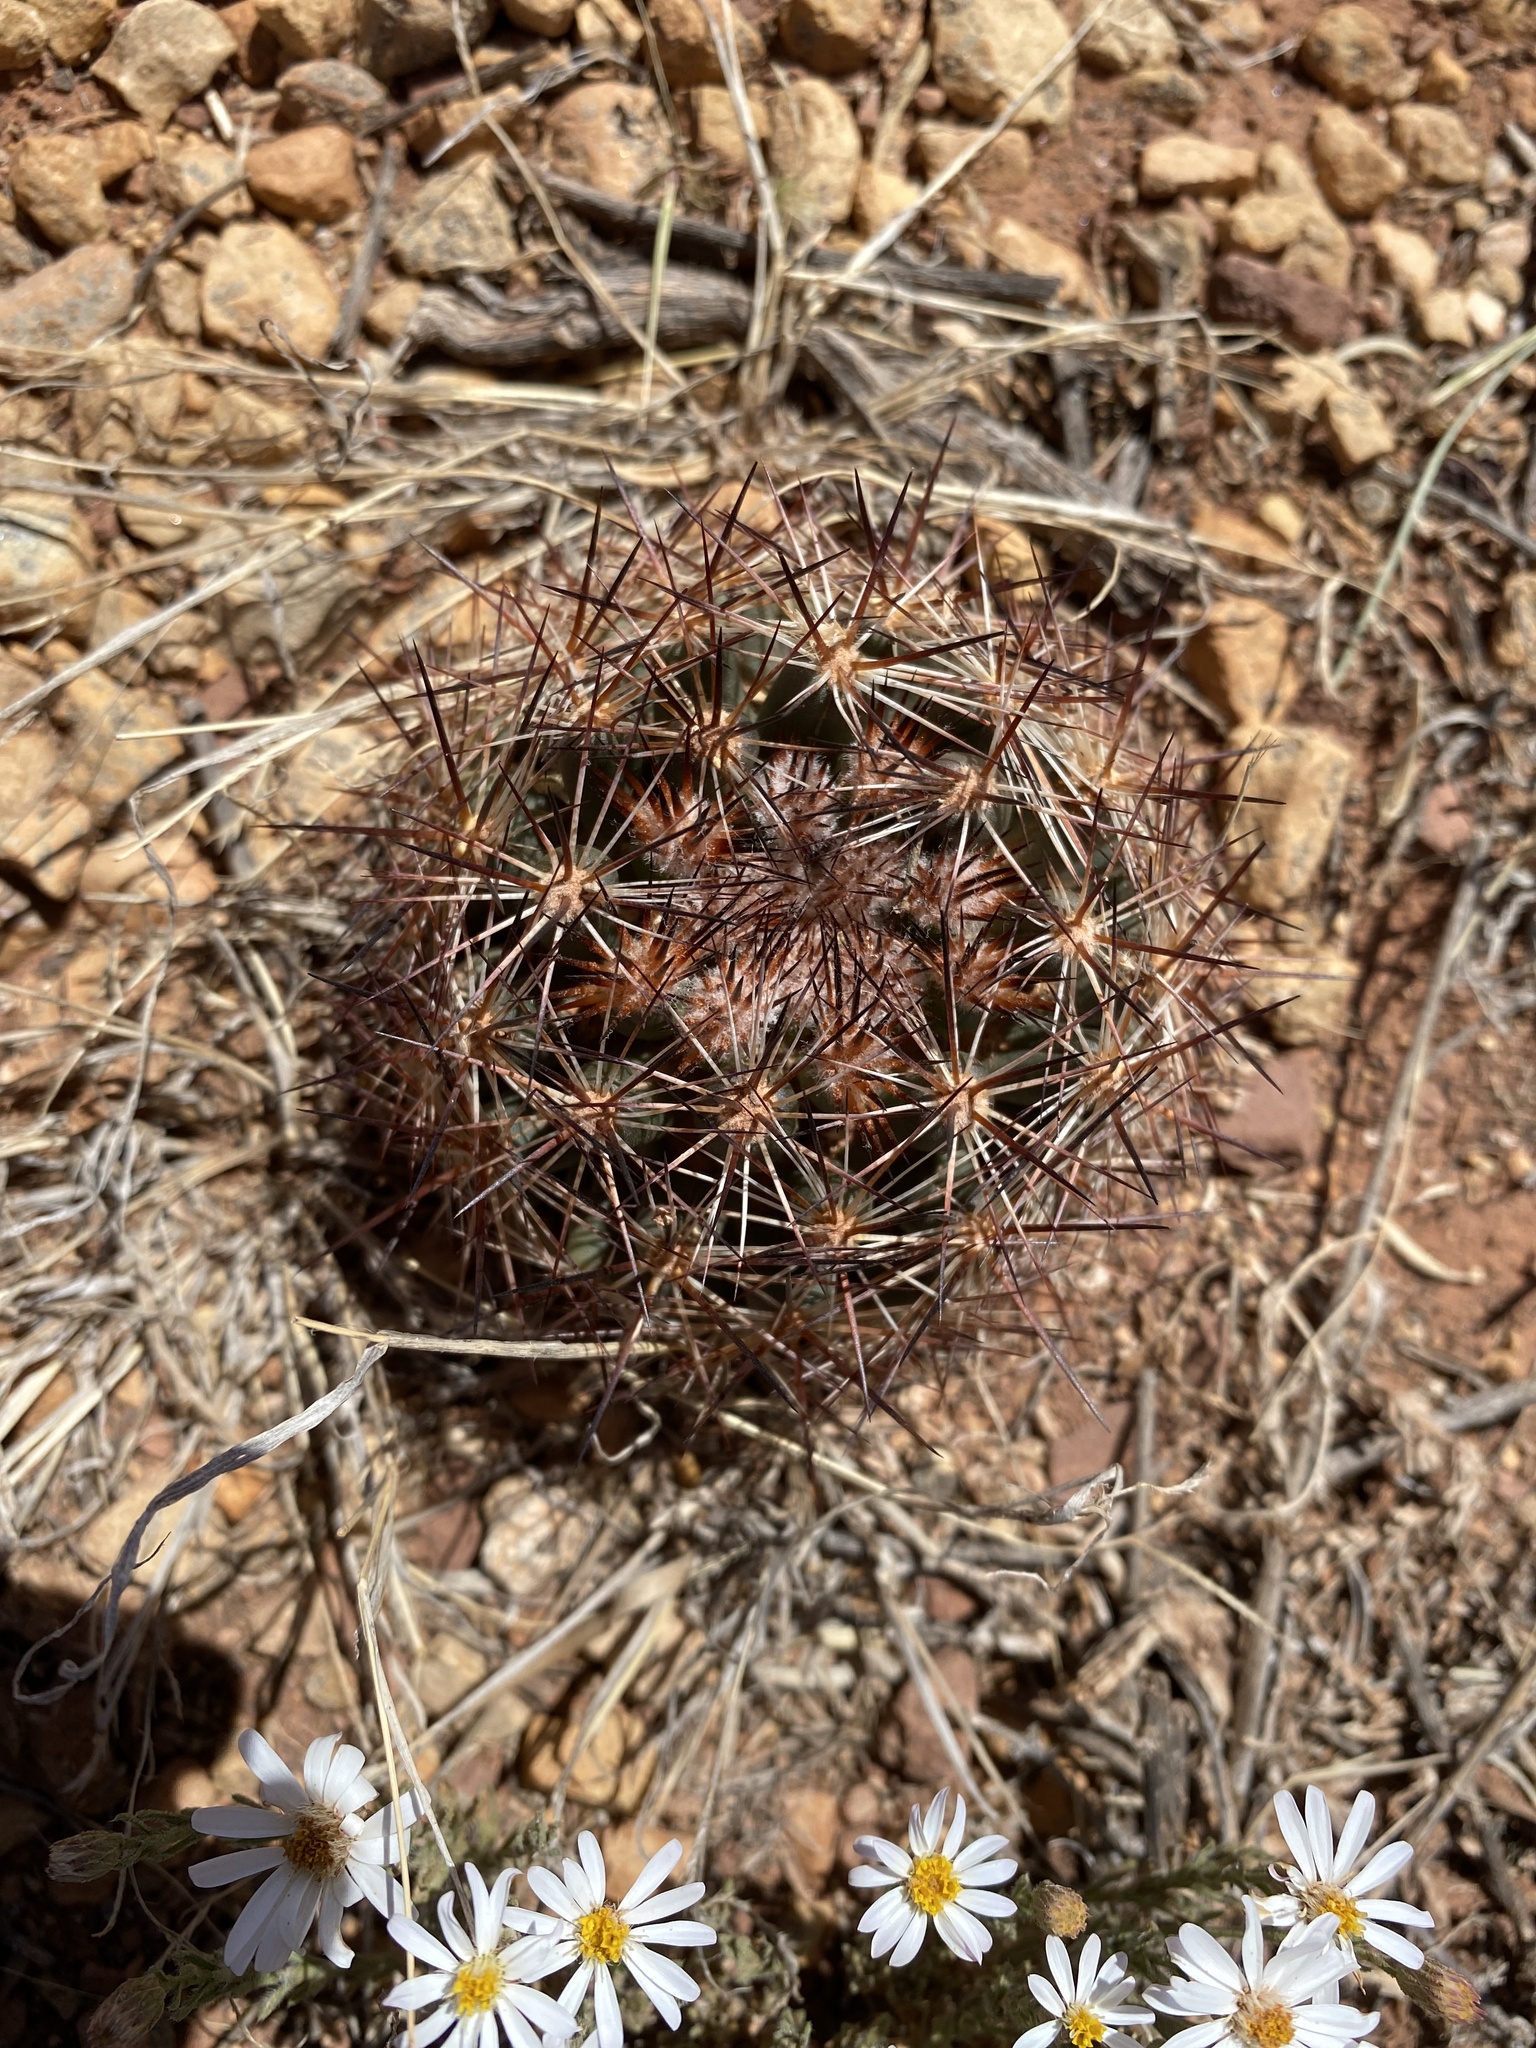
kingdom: Plantae
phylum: Tracheophyta
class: Magnoliopsida
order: Caryophyllales
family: Cactaceae
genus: Pelecyphora
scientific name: Pelecyphora vivipara
